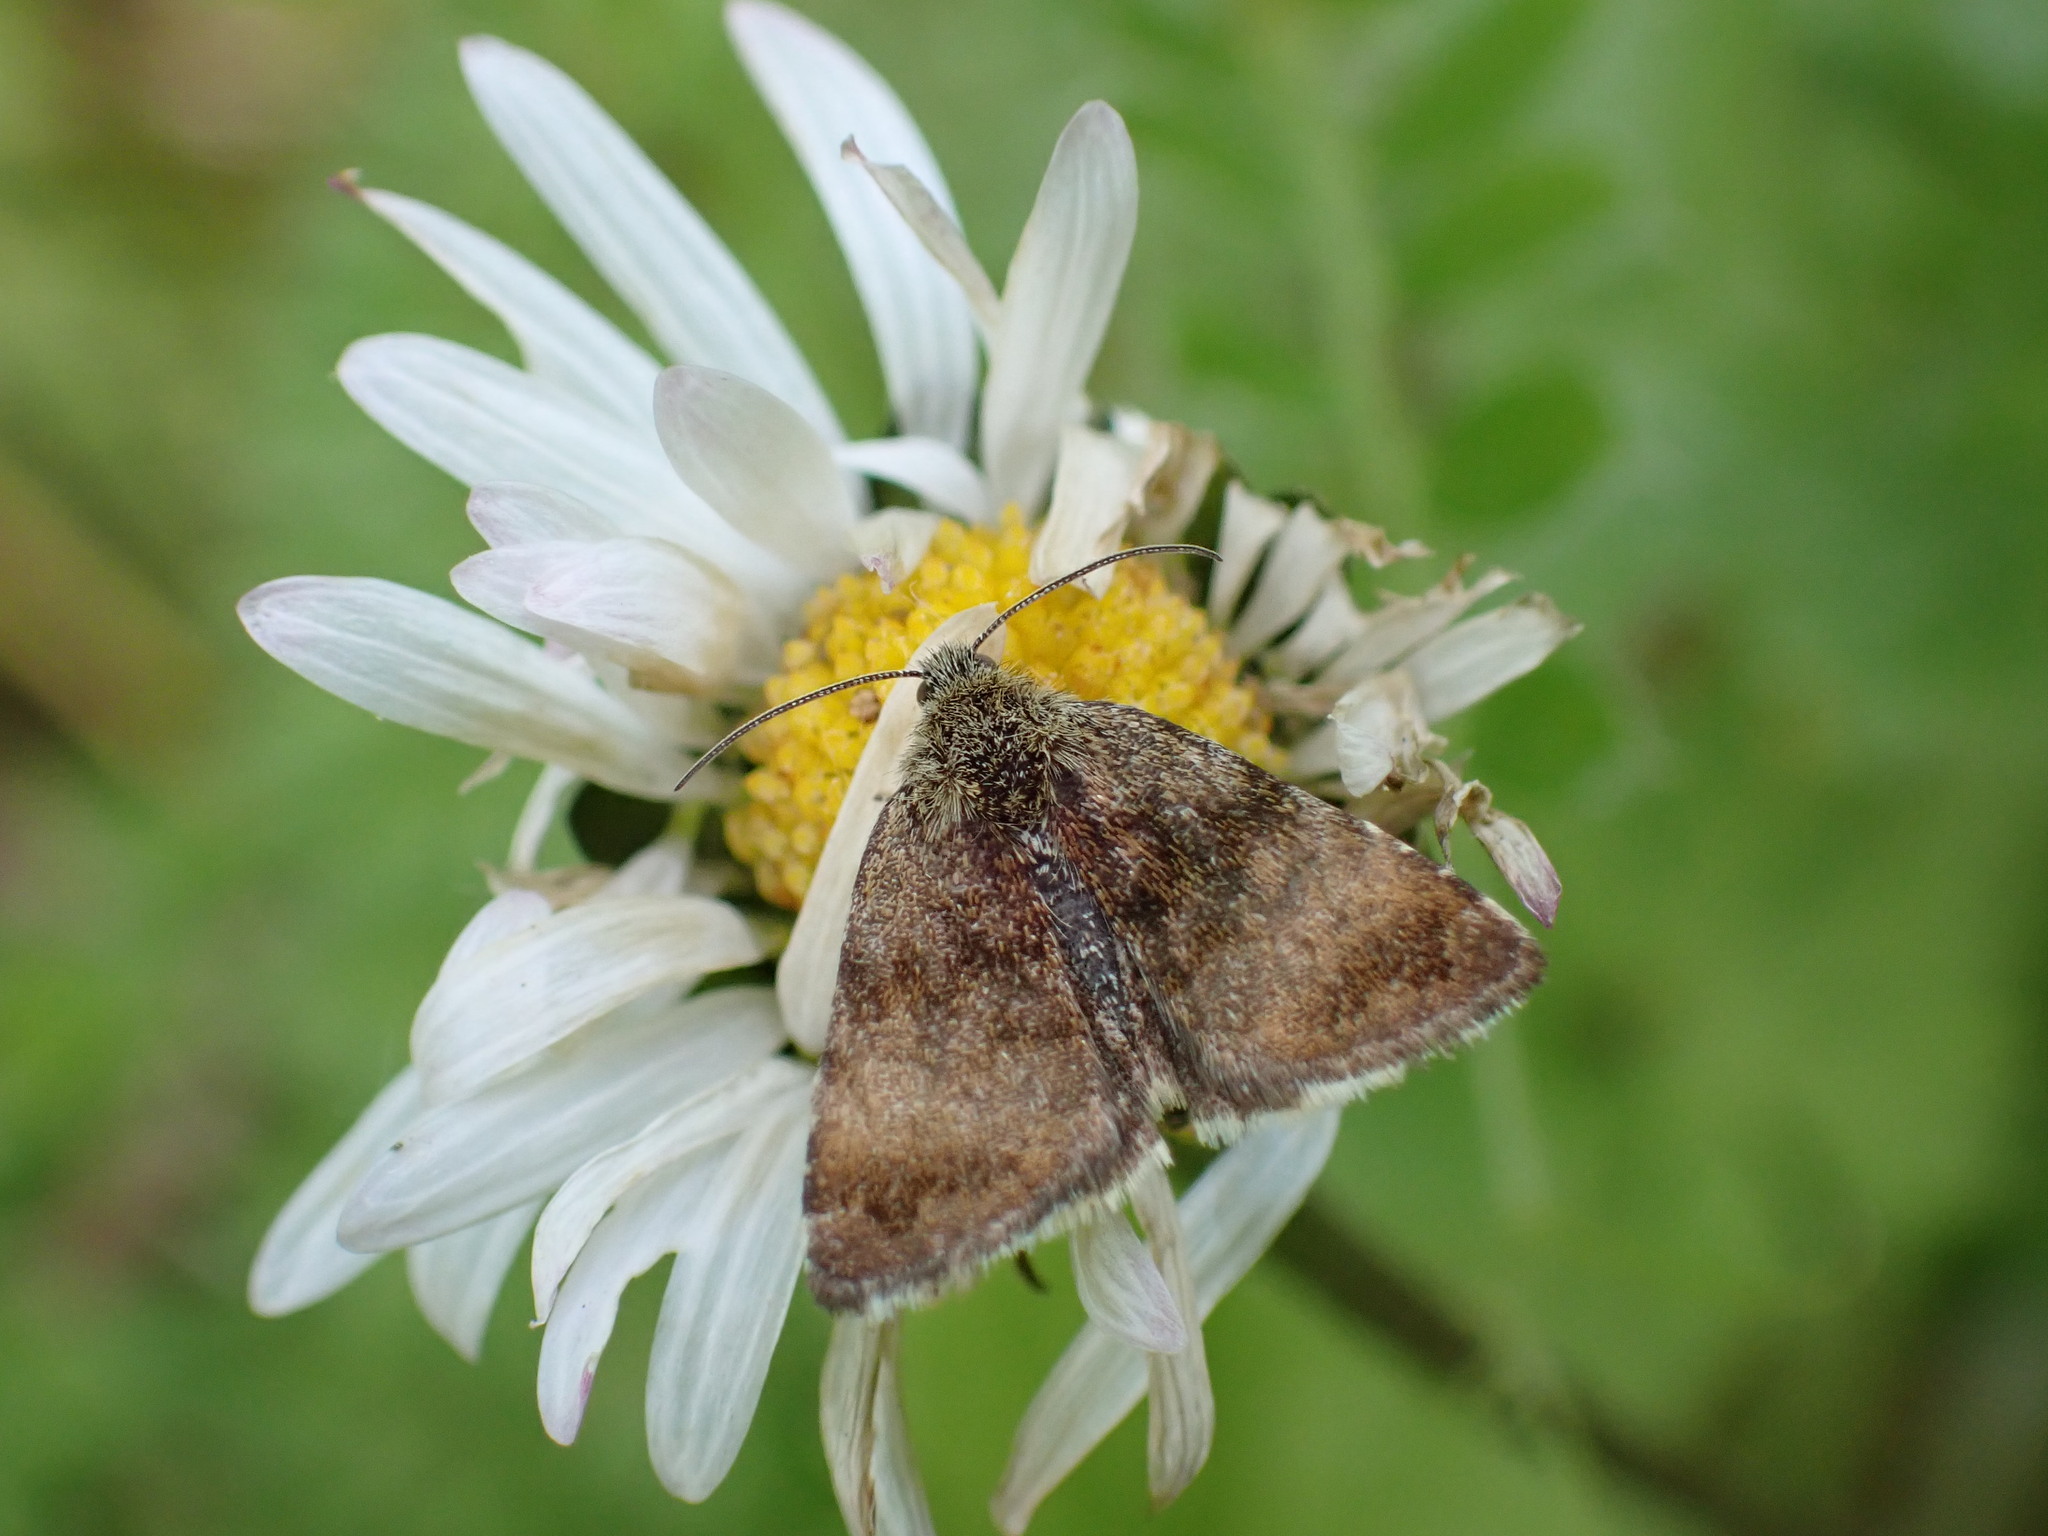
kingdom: Animalia
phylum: Arthropoda
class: Insecta
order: Lepidoptera
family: Noctuidae
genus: Panemeria
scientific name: Panemeria tenebrata
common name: Small yellow underwing
